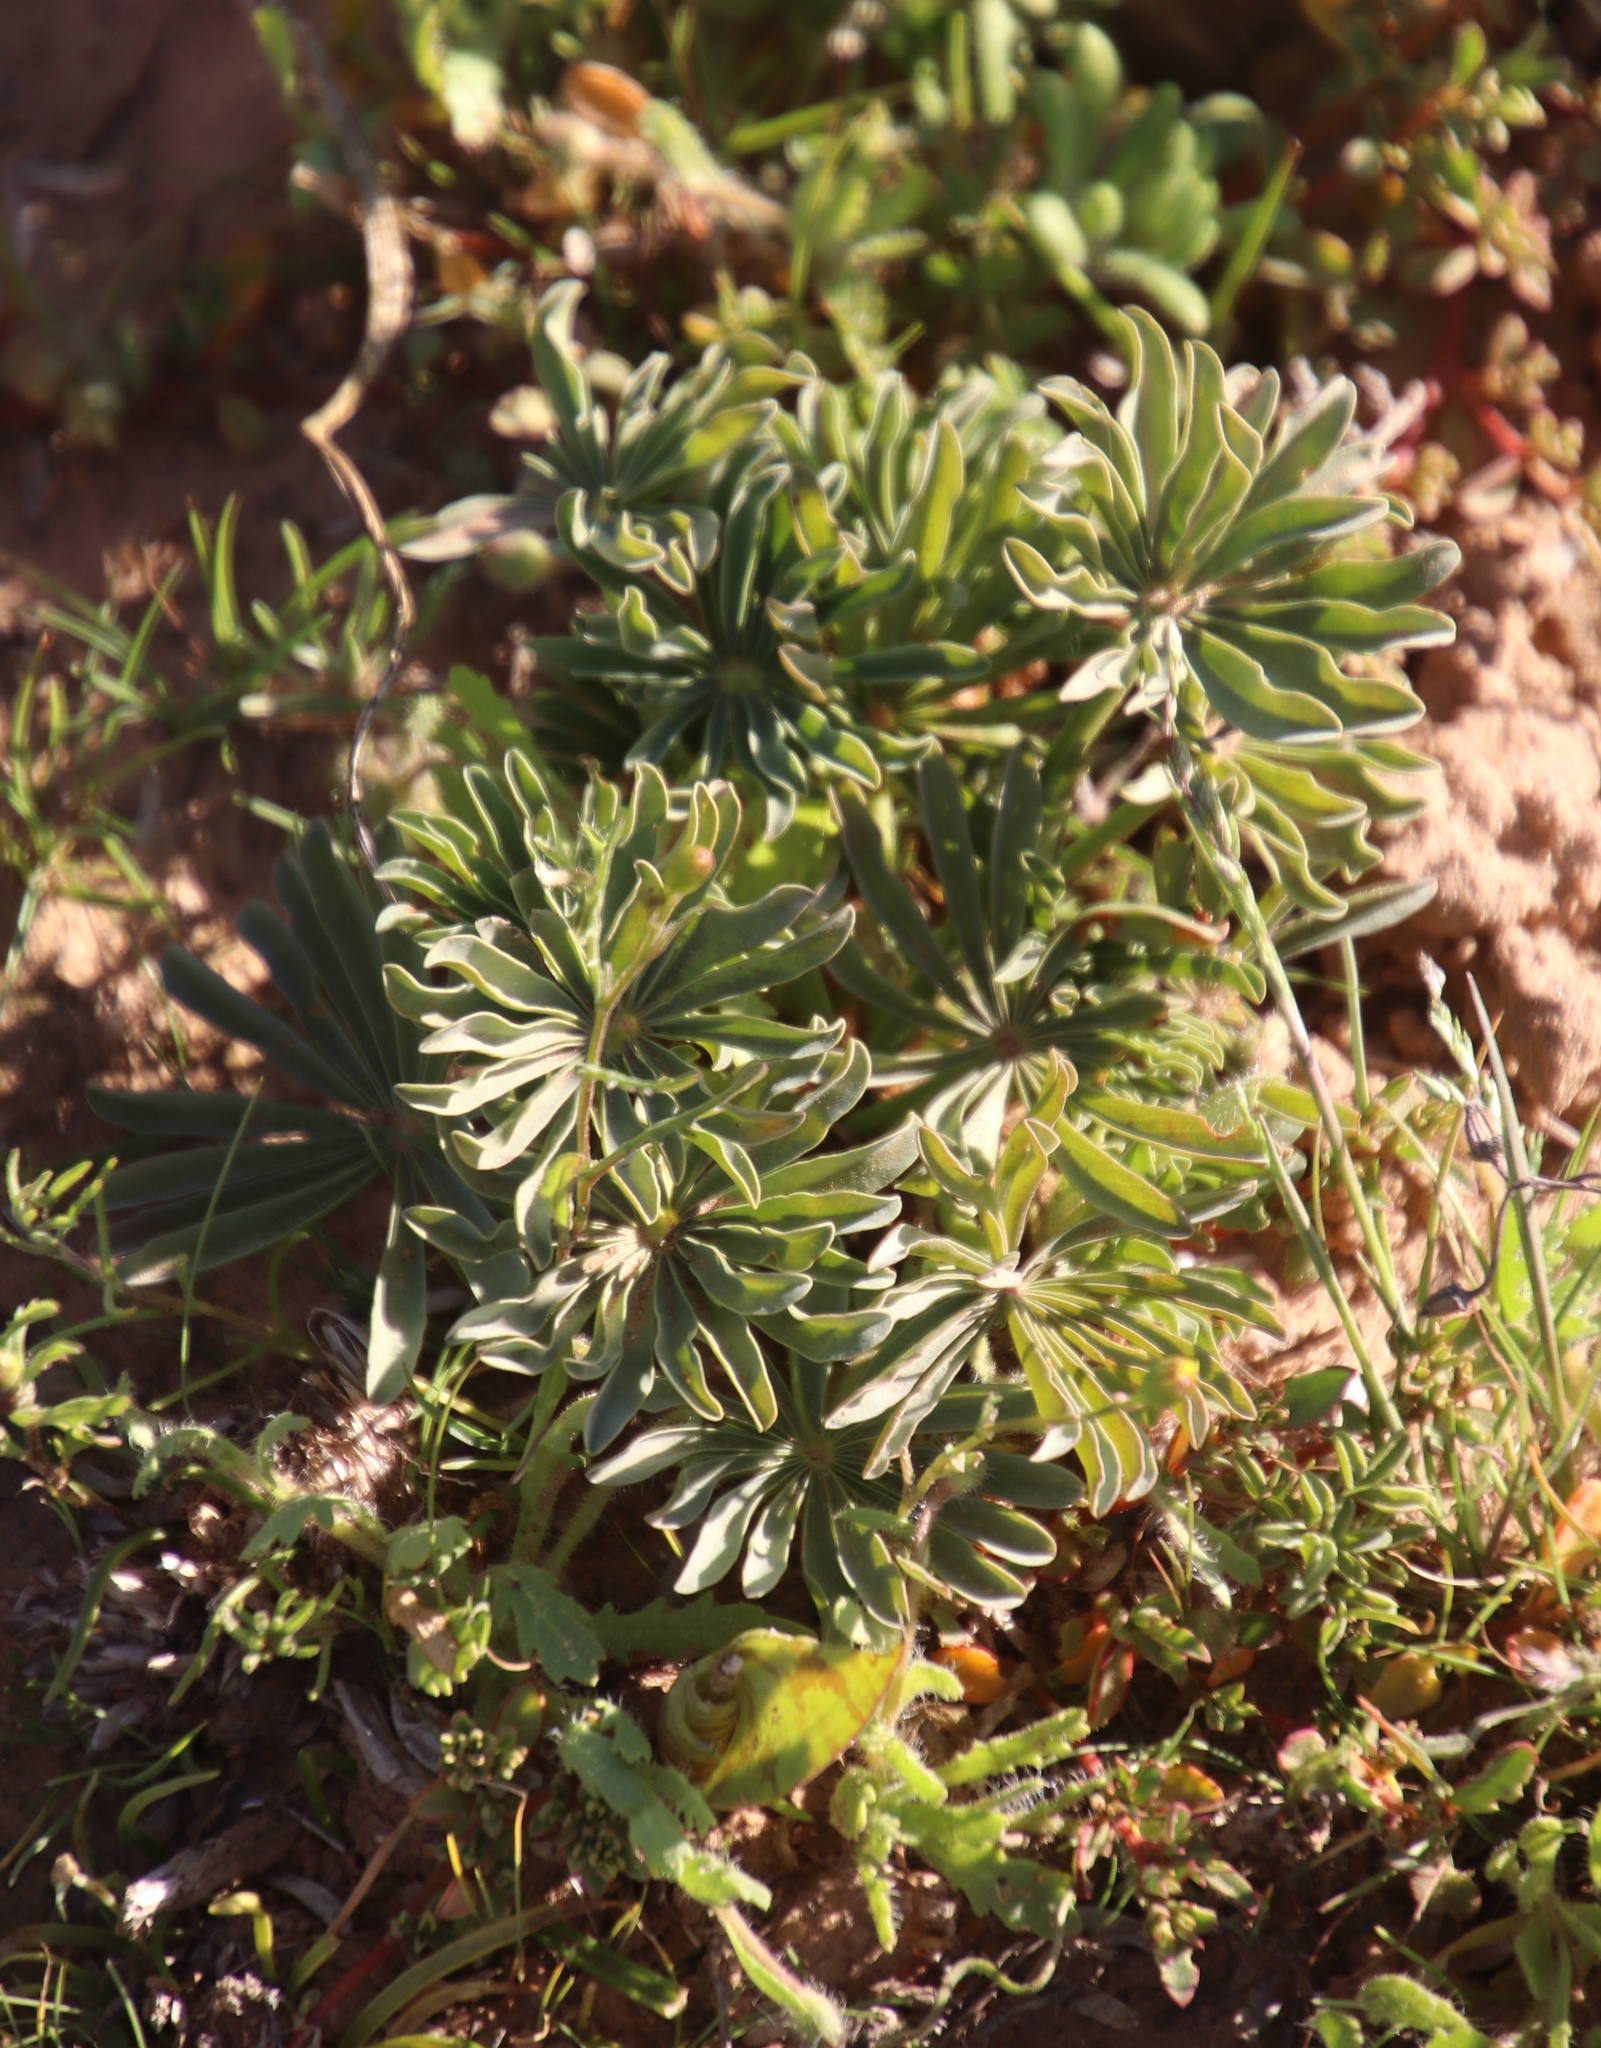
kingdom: Plantae
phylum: Tracheophyta
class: Magnoliopsida
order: Oxalidales
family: Oxalidaceae
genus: Oxalis
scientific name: Oxalis flava
